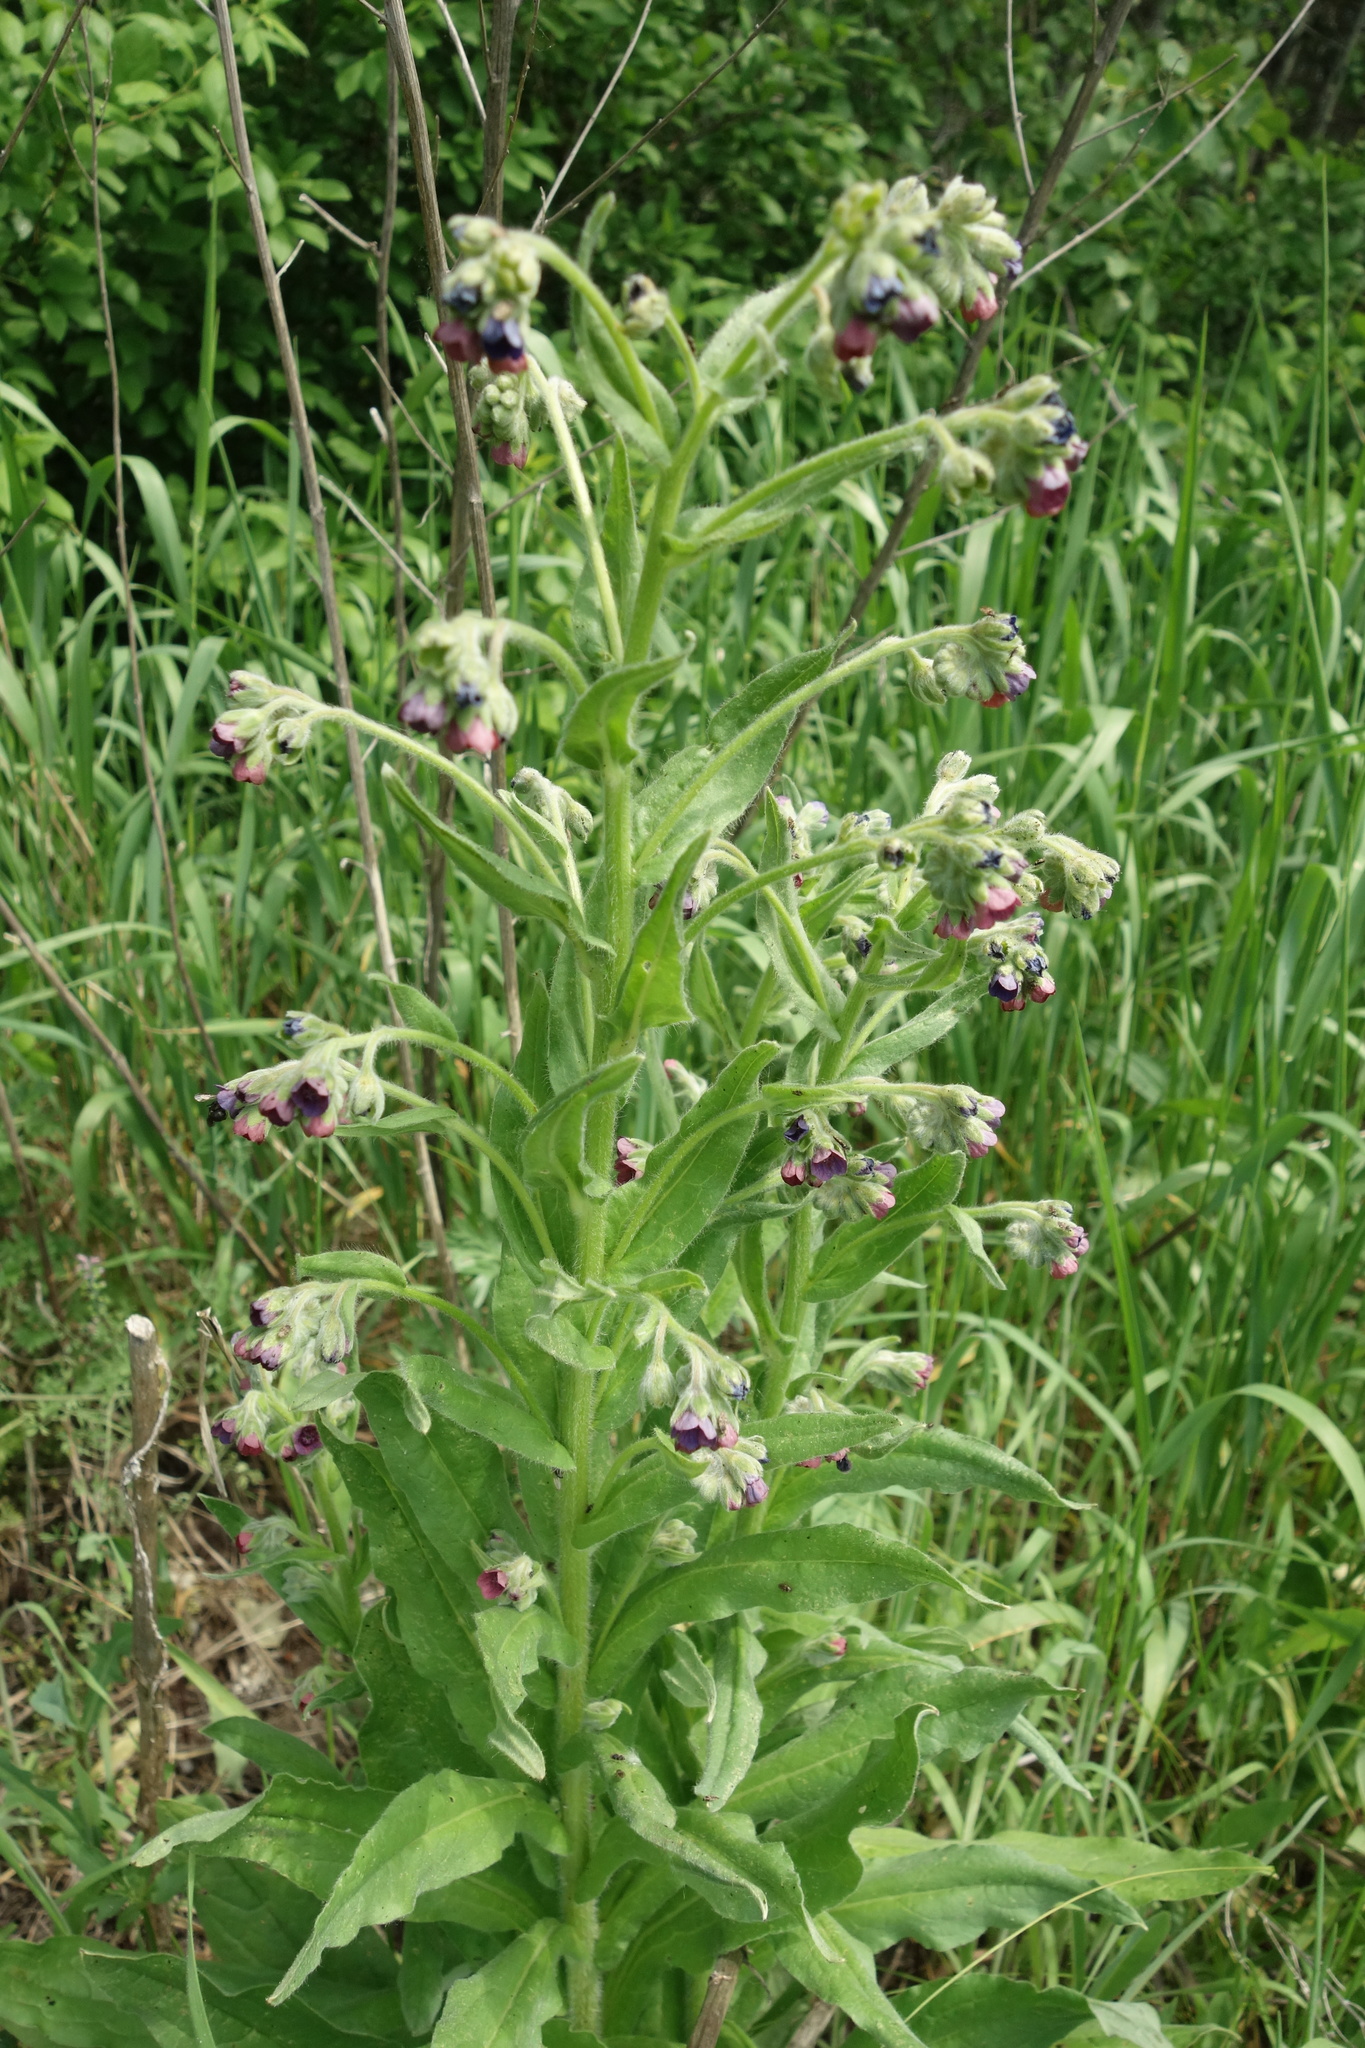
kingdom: Plantae
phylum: Tracheophyta
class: Magnoliopsida
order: Boraginales
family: Boraginaceae
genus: Cynoglossum
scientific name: Cynoglossum officinale
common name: Hound's-tongue
